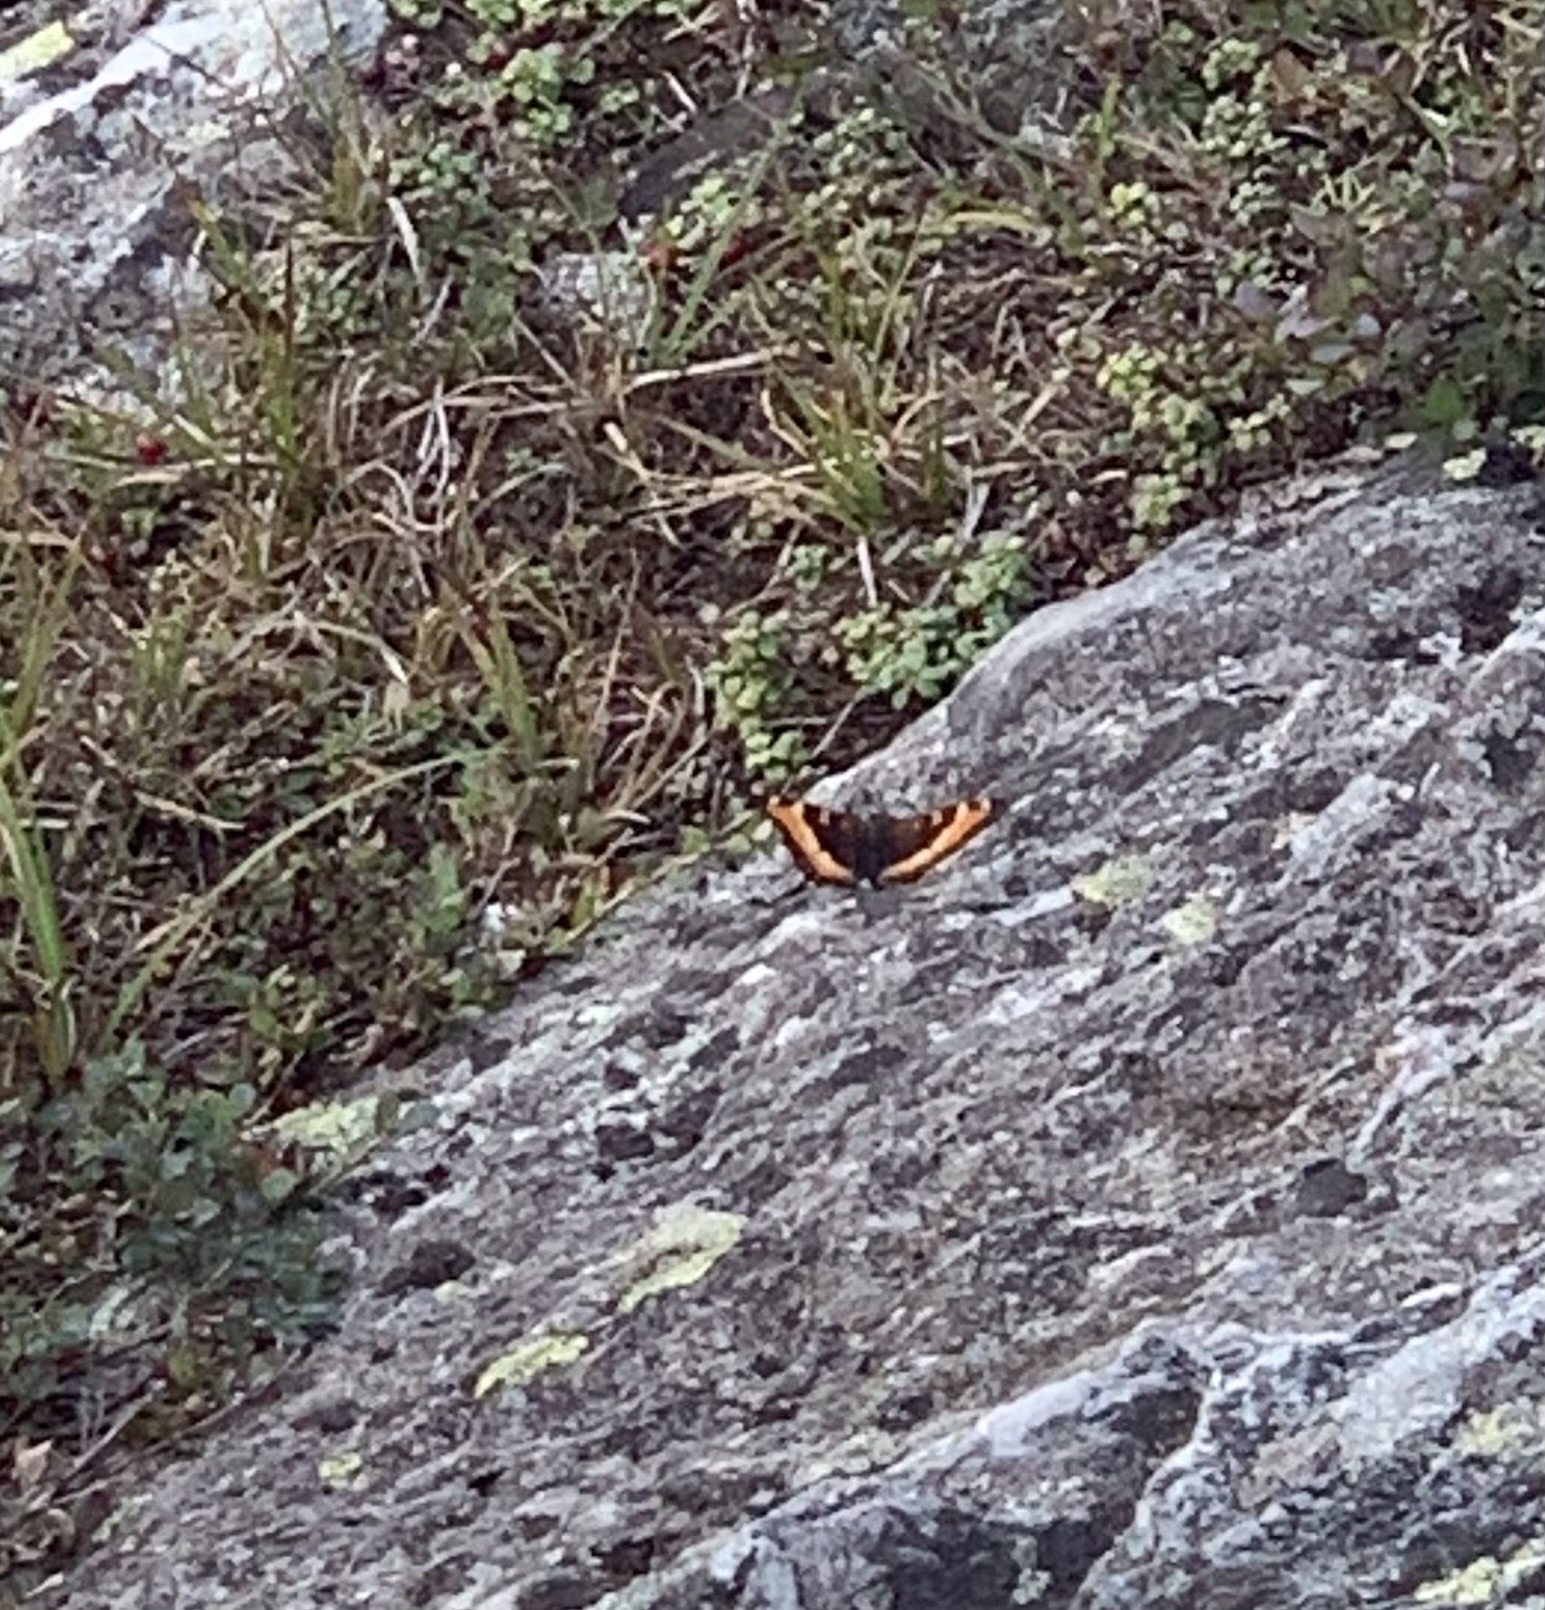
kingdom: Animalia
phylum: Arthropoda
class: Insecta
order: Lepidoptera
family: Nymphalidae
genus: Aglais
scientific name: Aglais milberti
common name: Milbert's tortoiseshell
